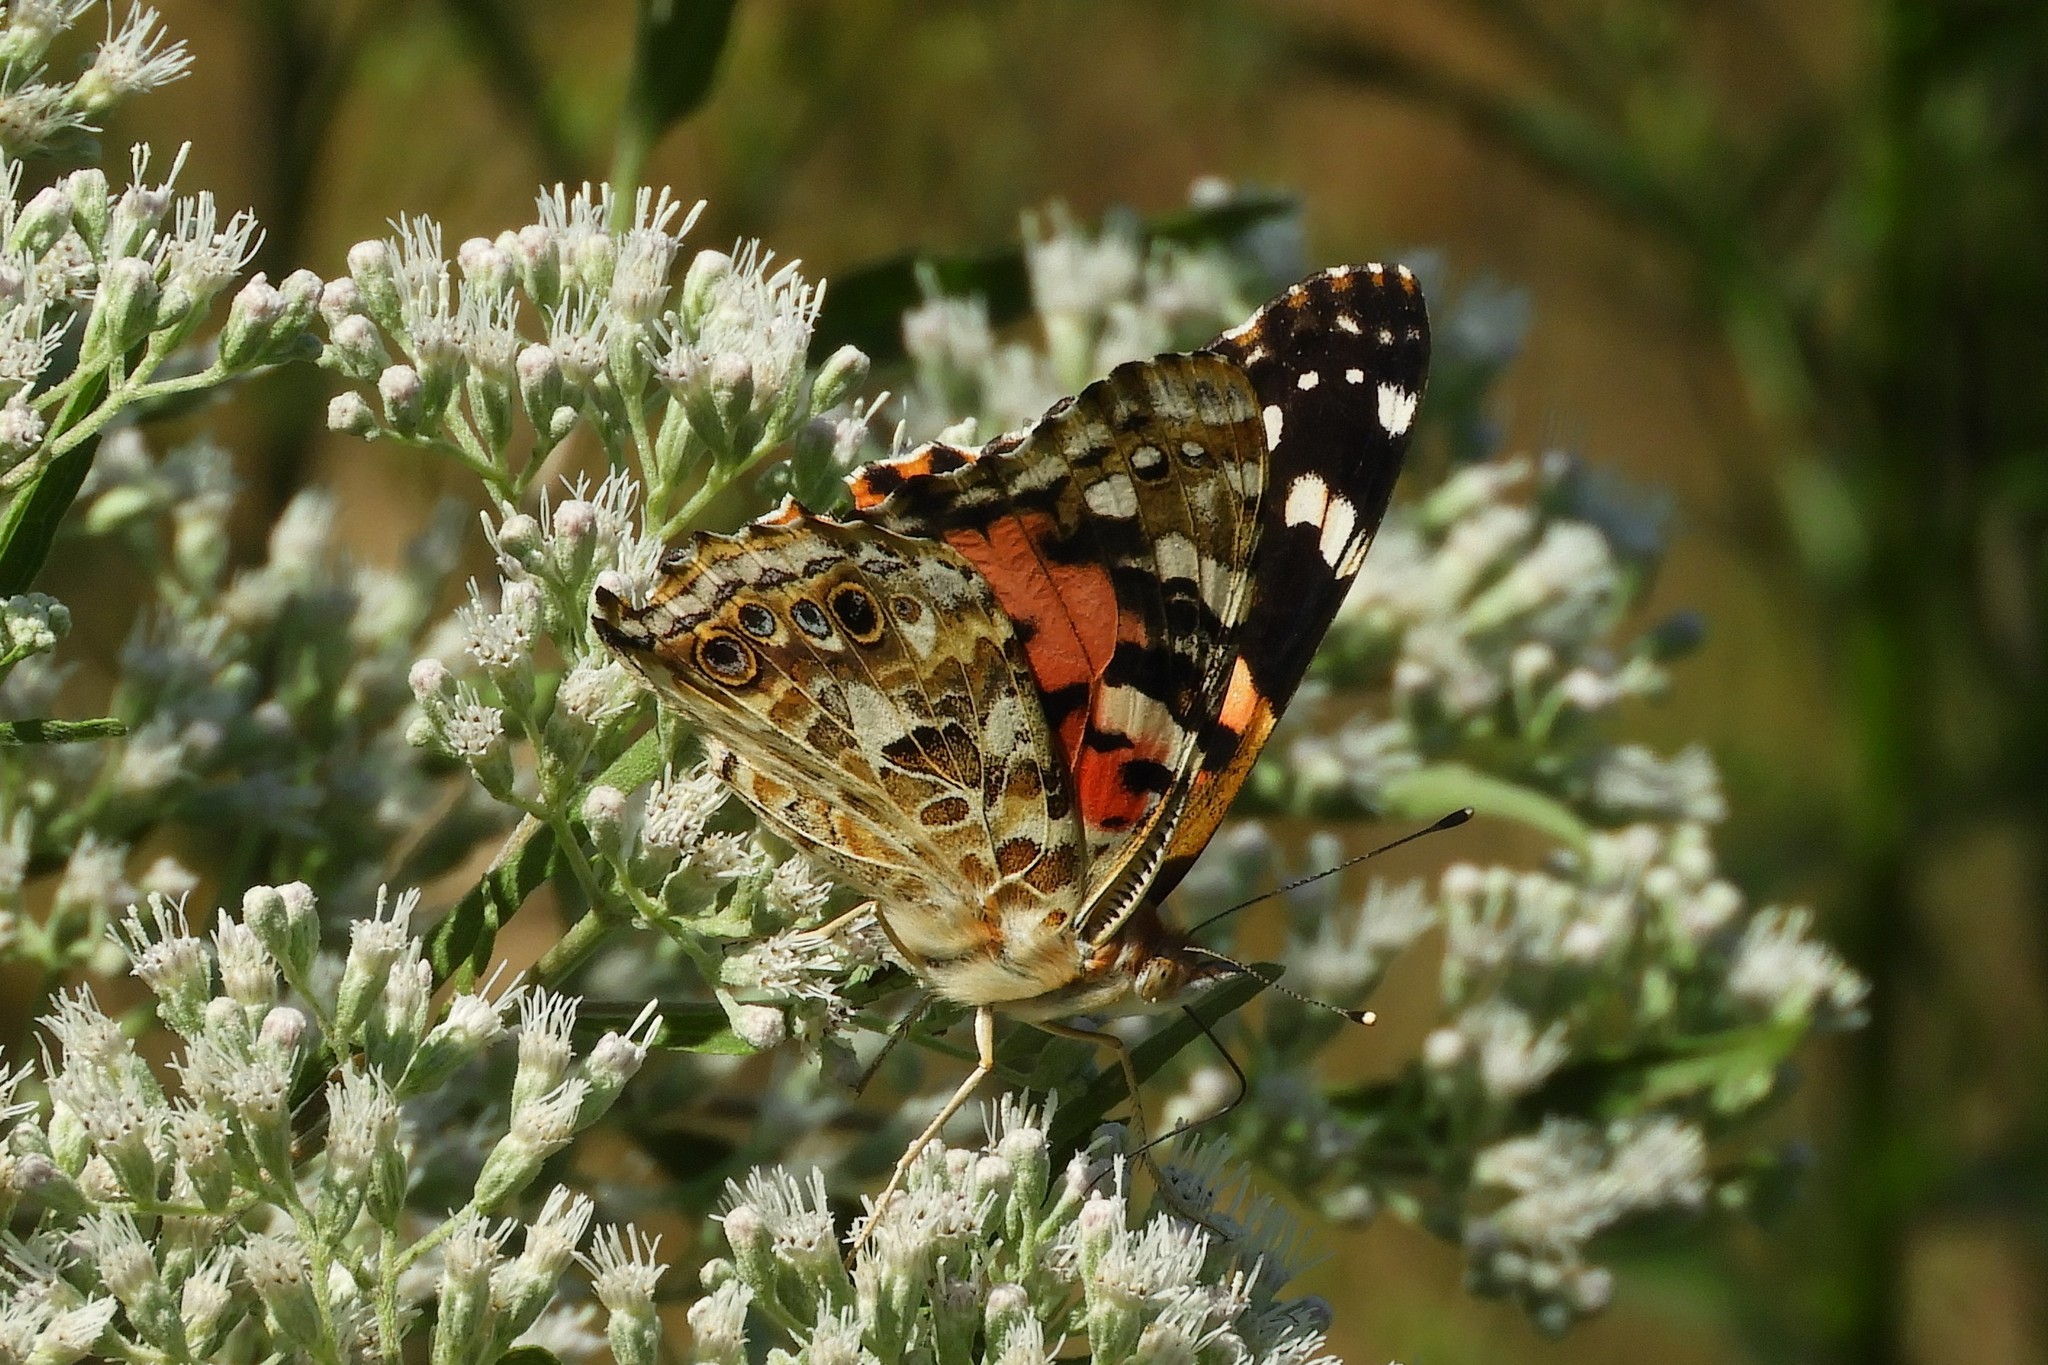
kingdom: Animalia
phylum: Arthropoda
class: Insecta
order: Lepidoptera
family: Nymphalidae
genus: Vanessa
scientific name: Vanessa cardui
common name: Painted lady
